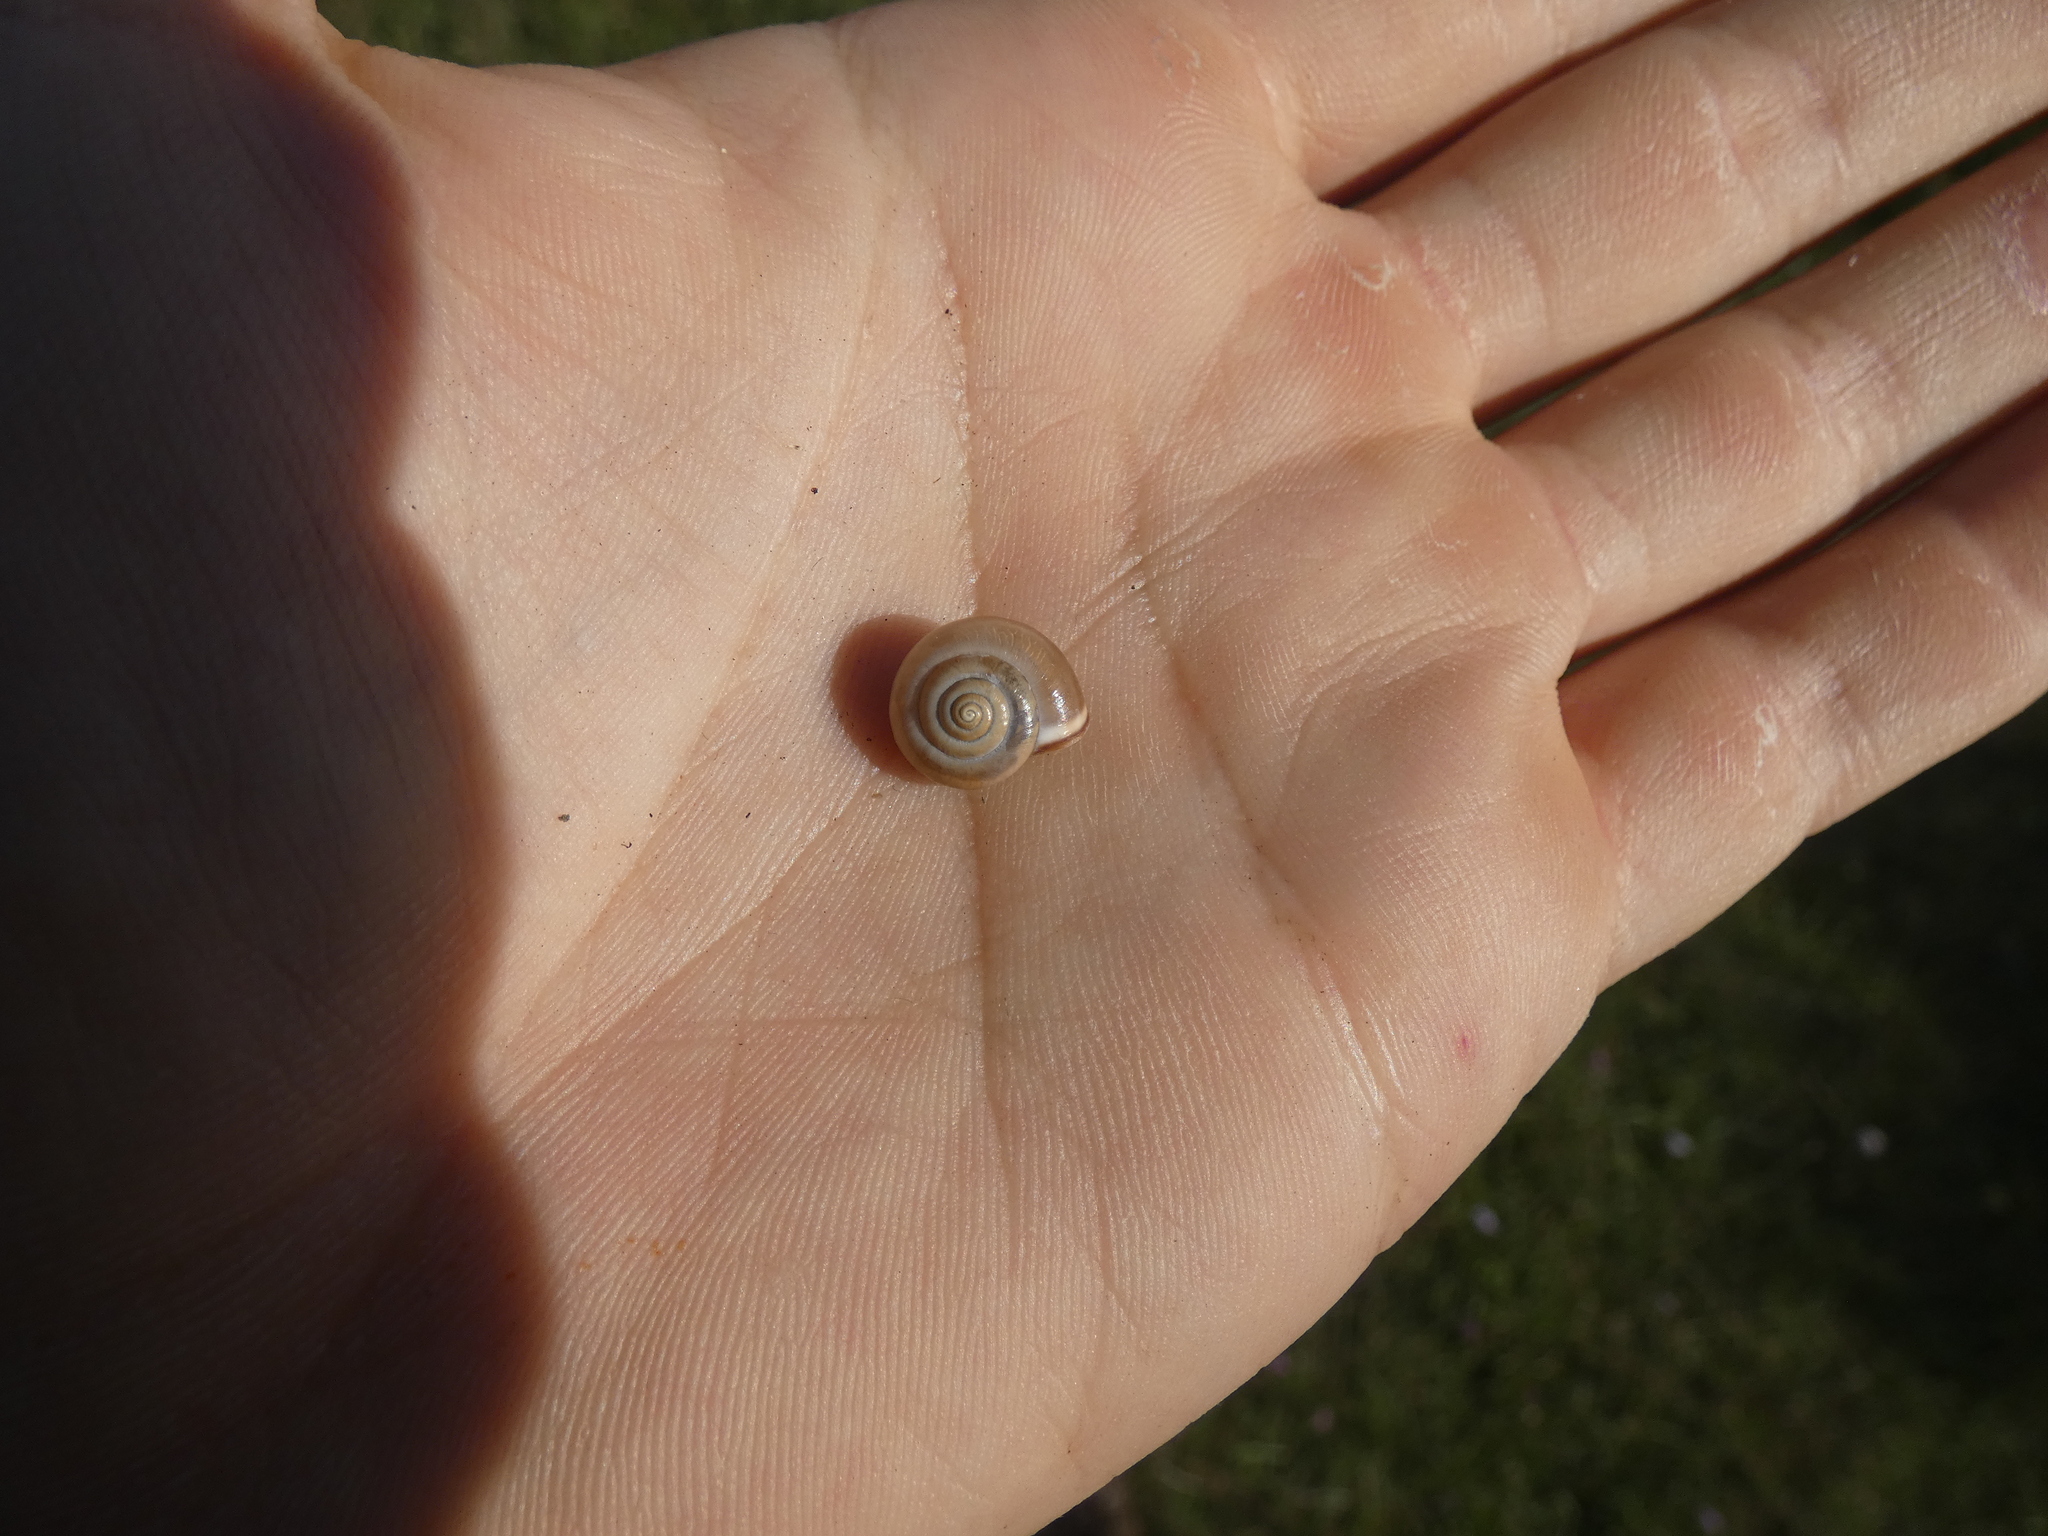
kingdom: Animalia
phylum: Mollusca
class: Gastropoda
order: Stylommatophora
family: Hygromiidae
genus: Monacha
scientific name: Monacha cartusiana
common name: Carthusian snail
